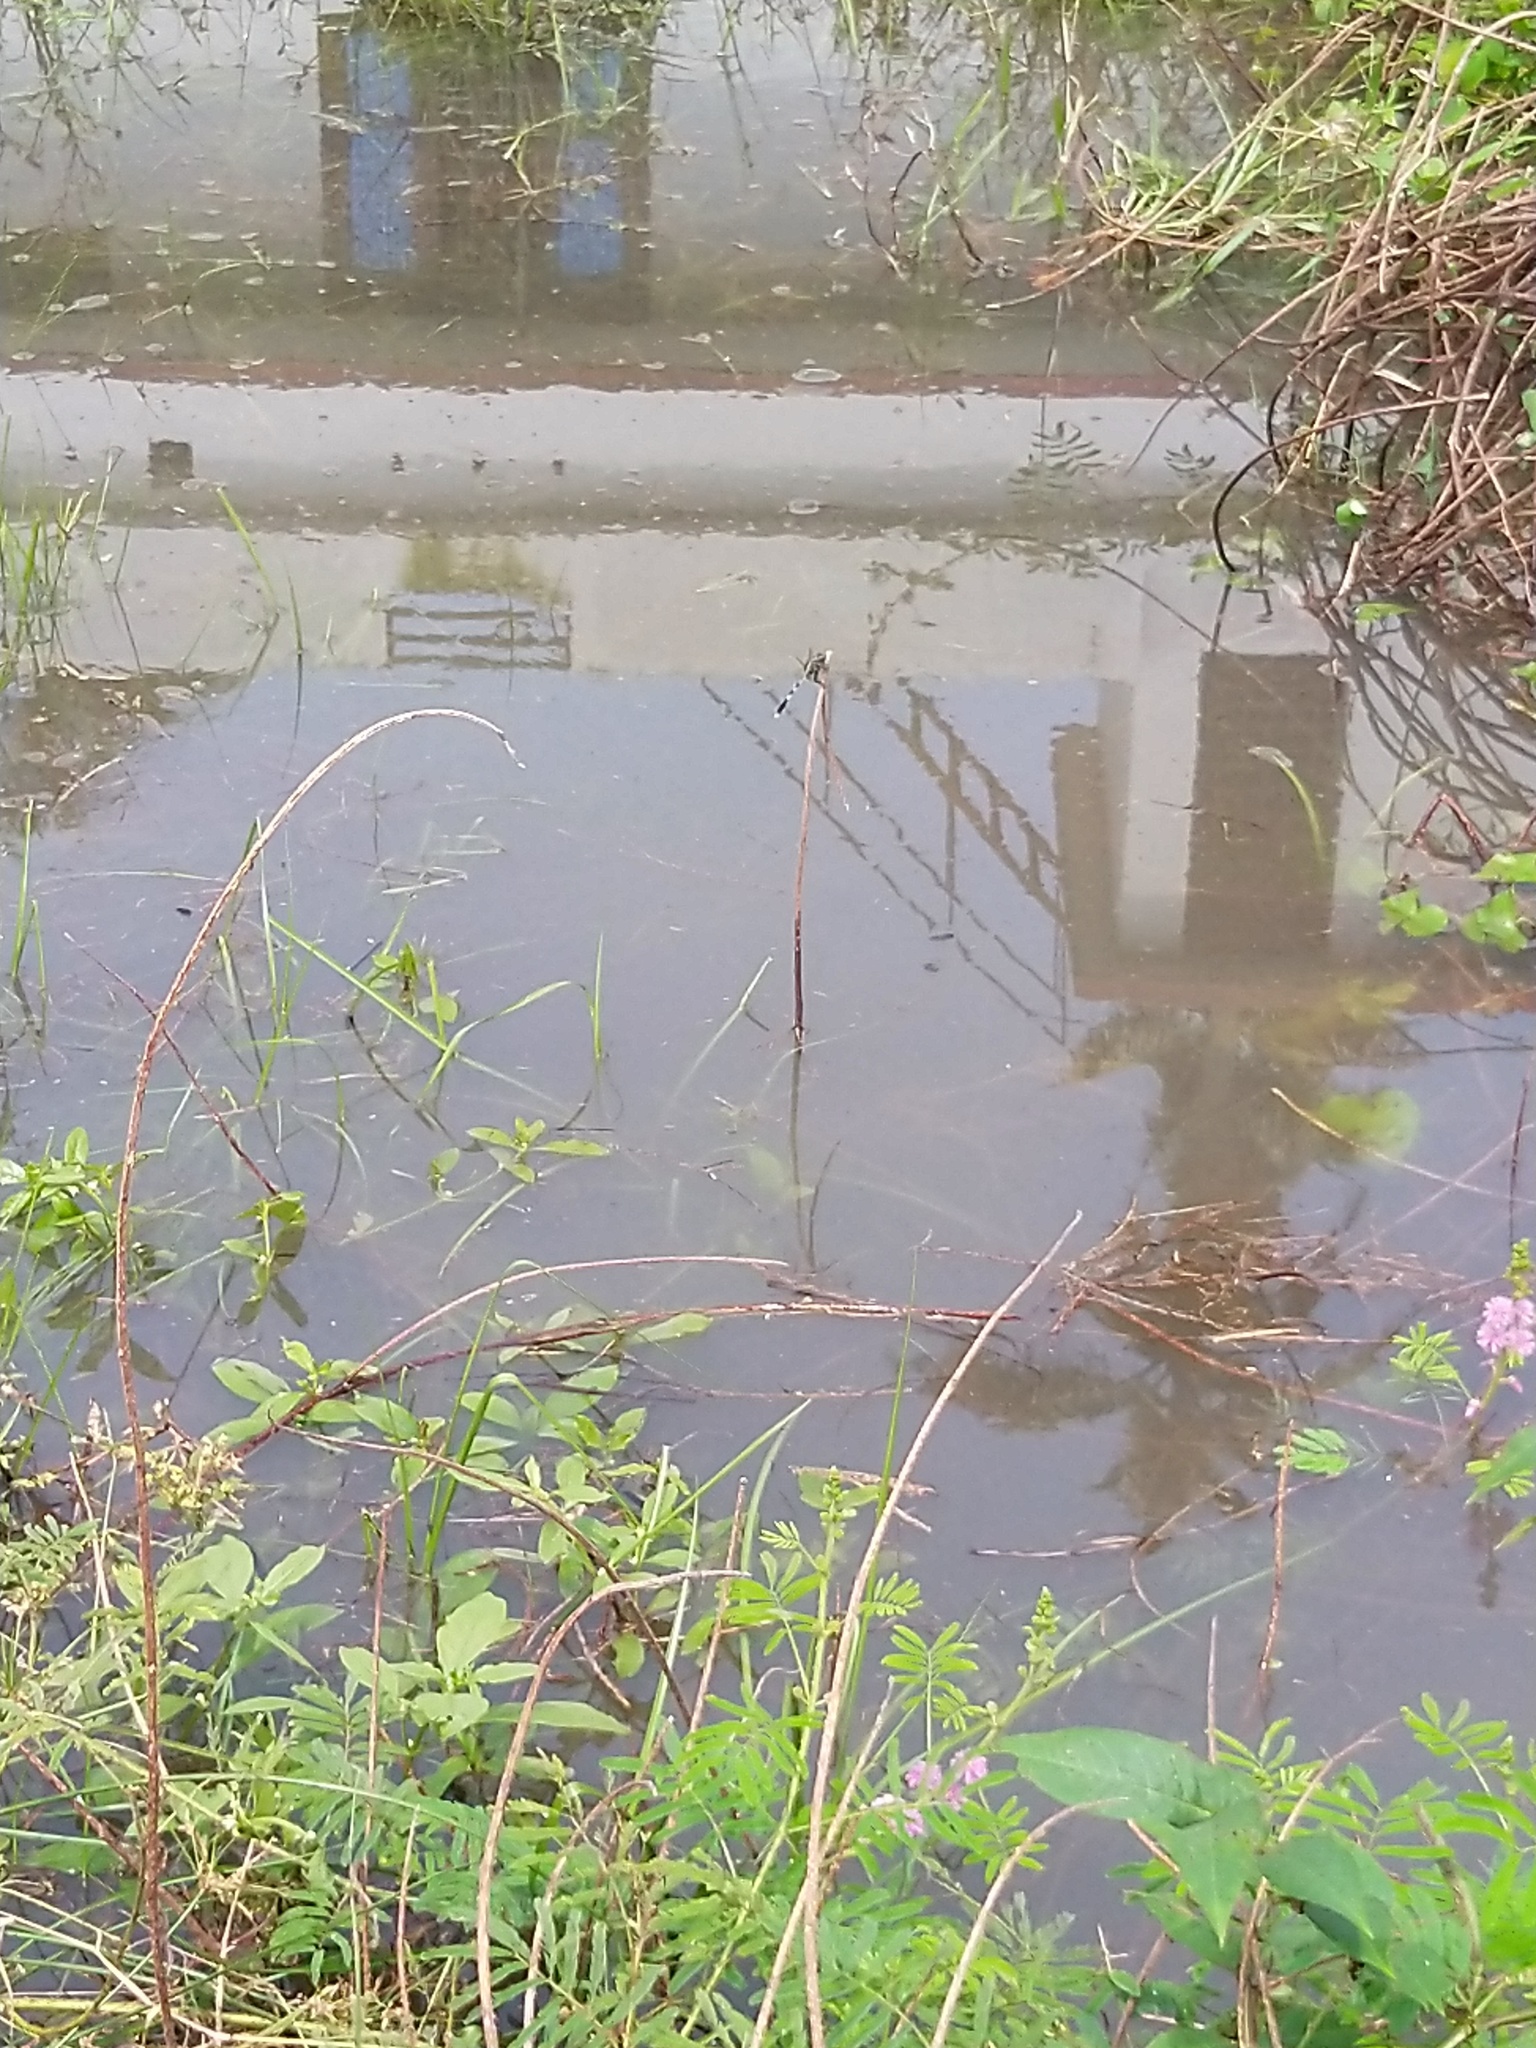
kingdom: Animalia
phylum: Arthropoda
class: Insecta
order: Odonata
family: Libellulidae
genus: Orthetrum
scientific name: Orthetrum sabina
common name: Slender skimmer
